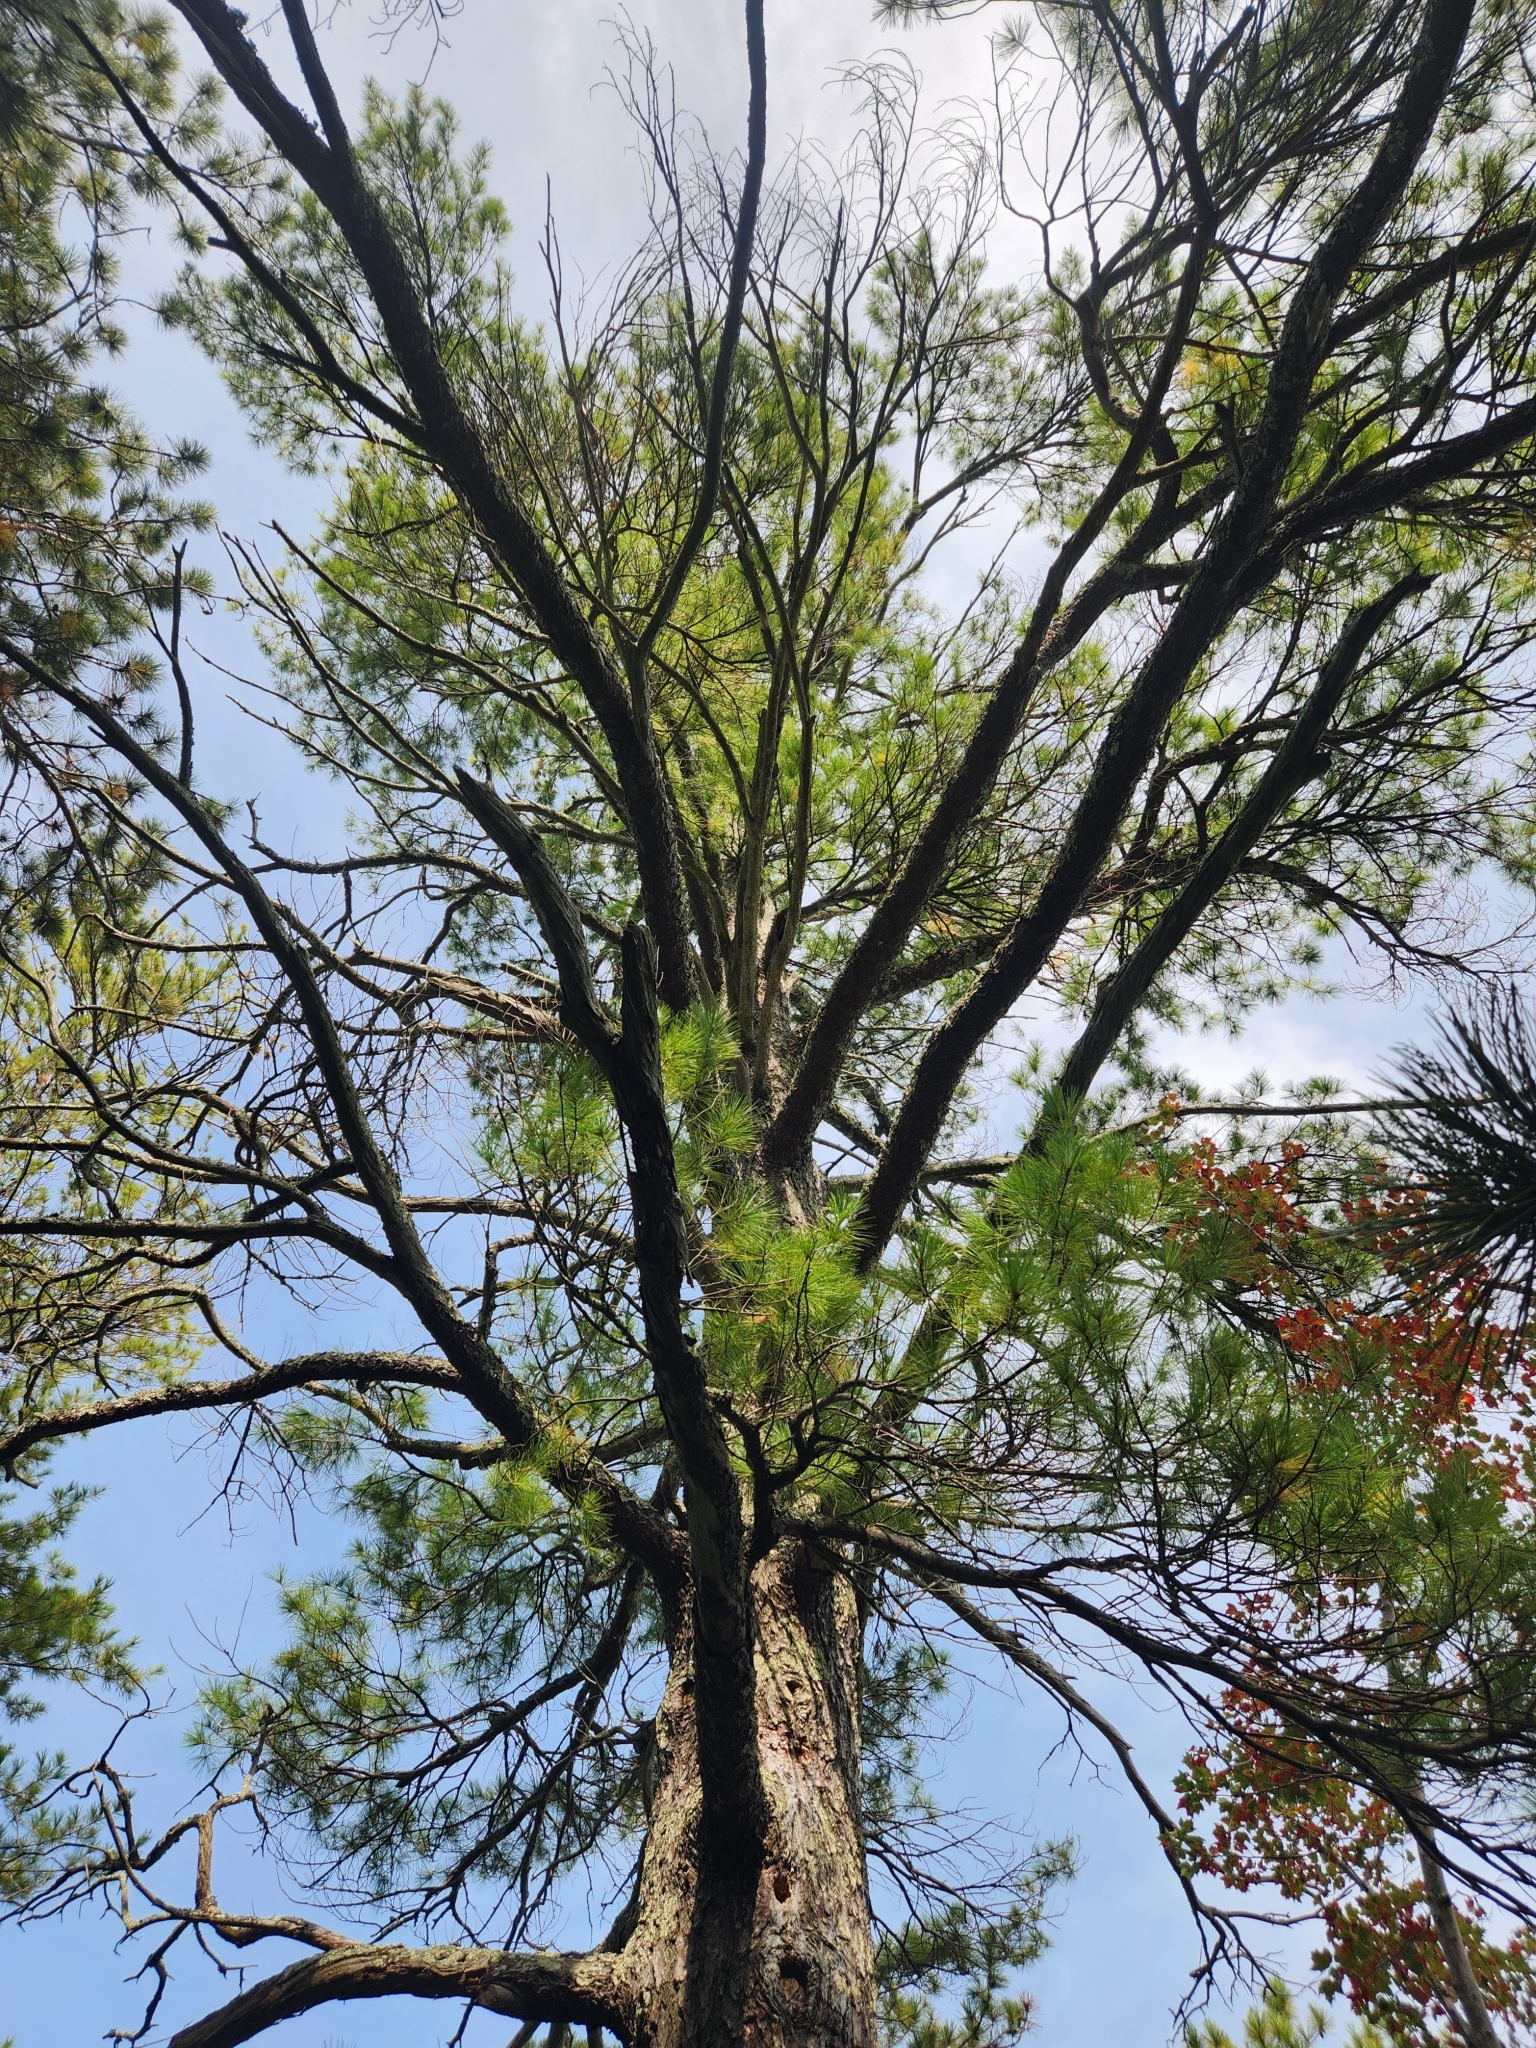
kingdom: Plantae
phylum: Tracheophyta
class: Pinopsida
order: Pinales
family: Pinaceae
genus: Pinus
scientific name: Pinus strobus
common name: Weymouth pine
